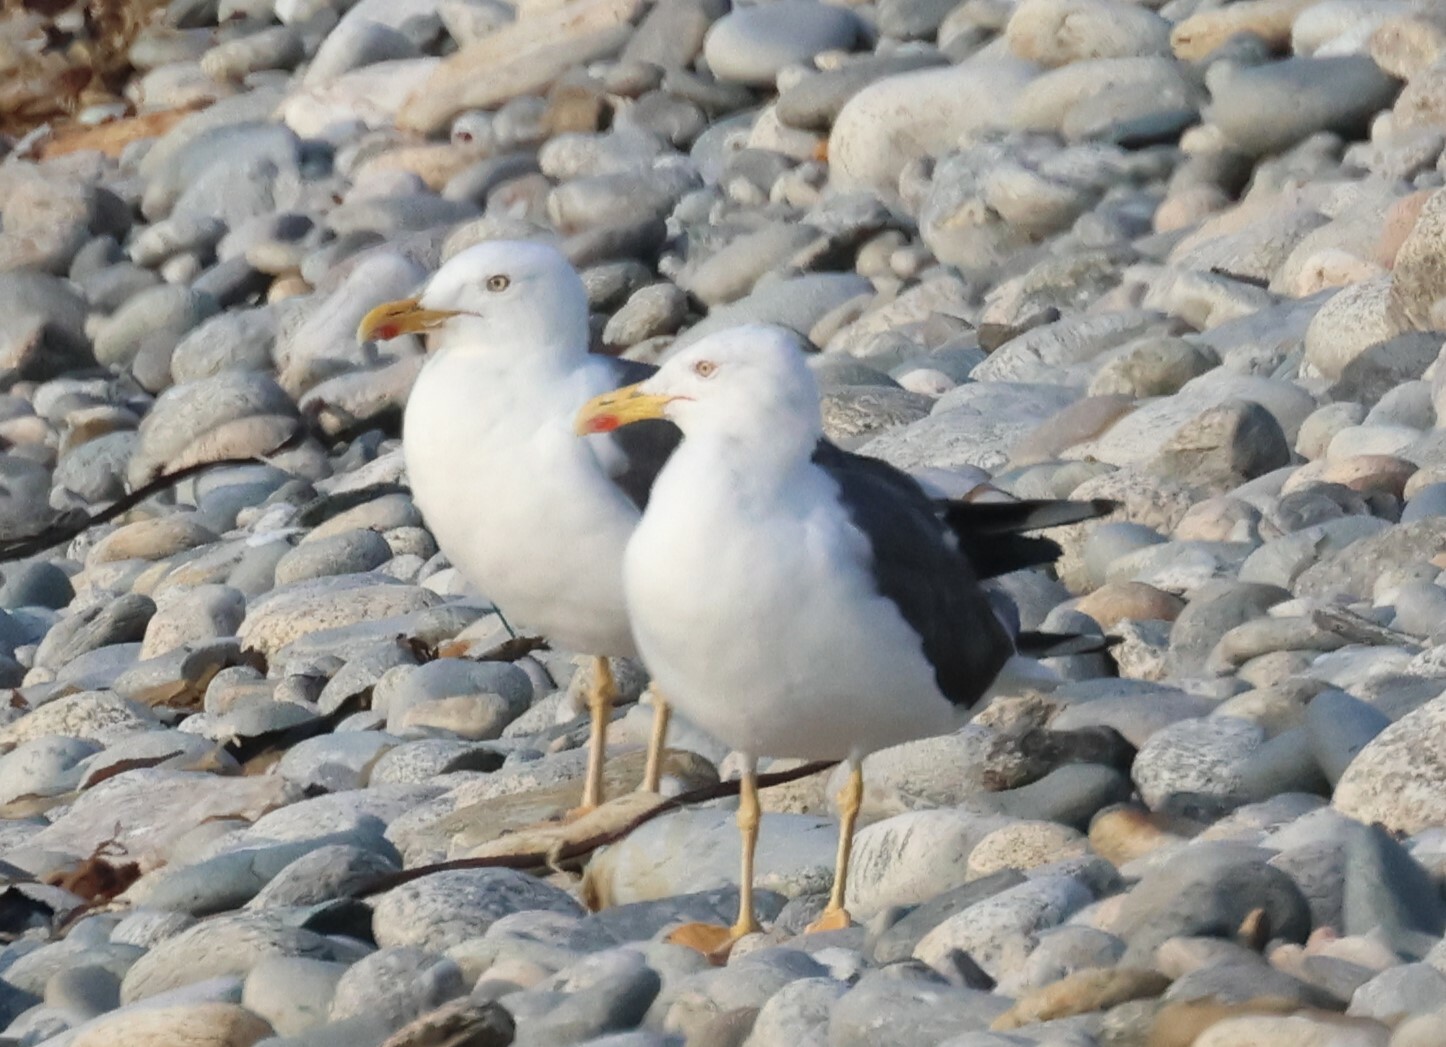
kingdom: Animalia
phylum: Chordata
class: Aves
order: Charadriiformes
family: Laridae
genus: Larus
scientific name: Larus fuscus
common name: Lesser black-backed gull
